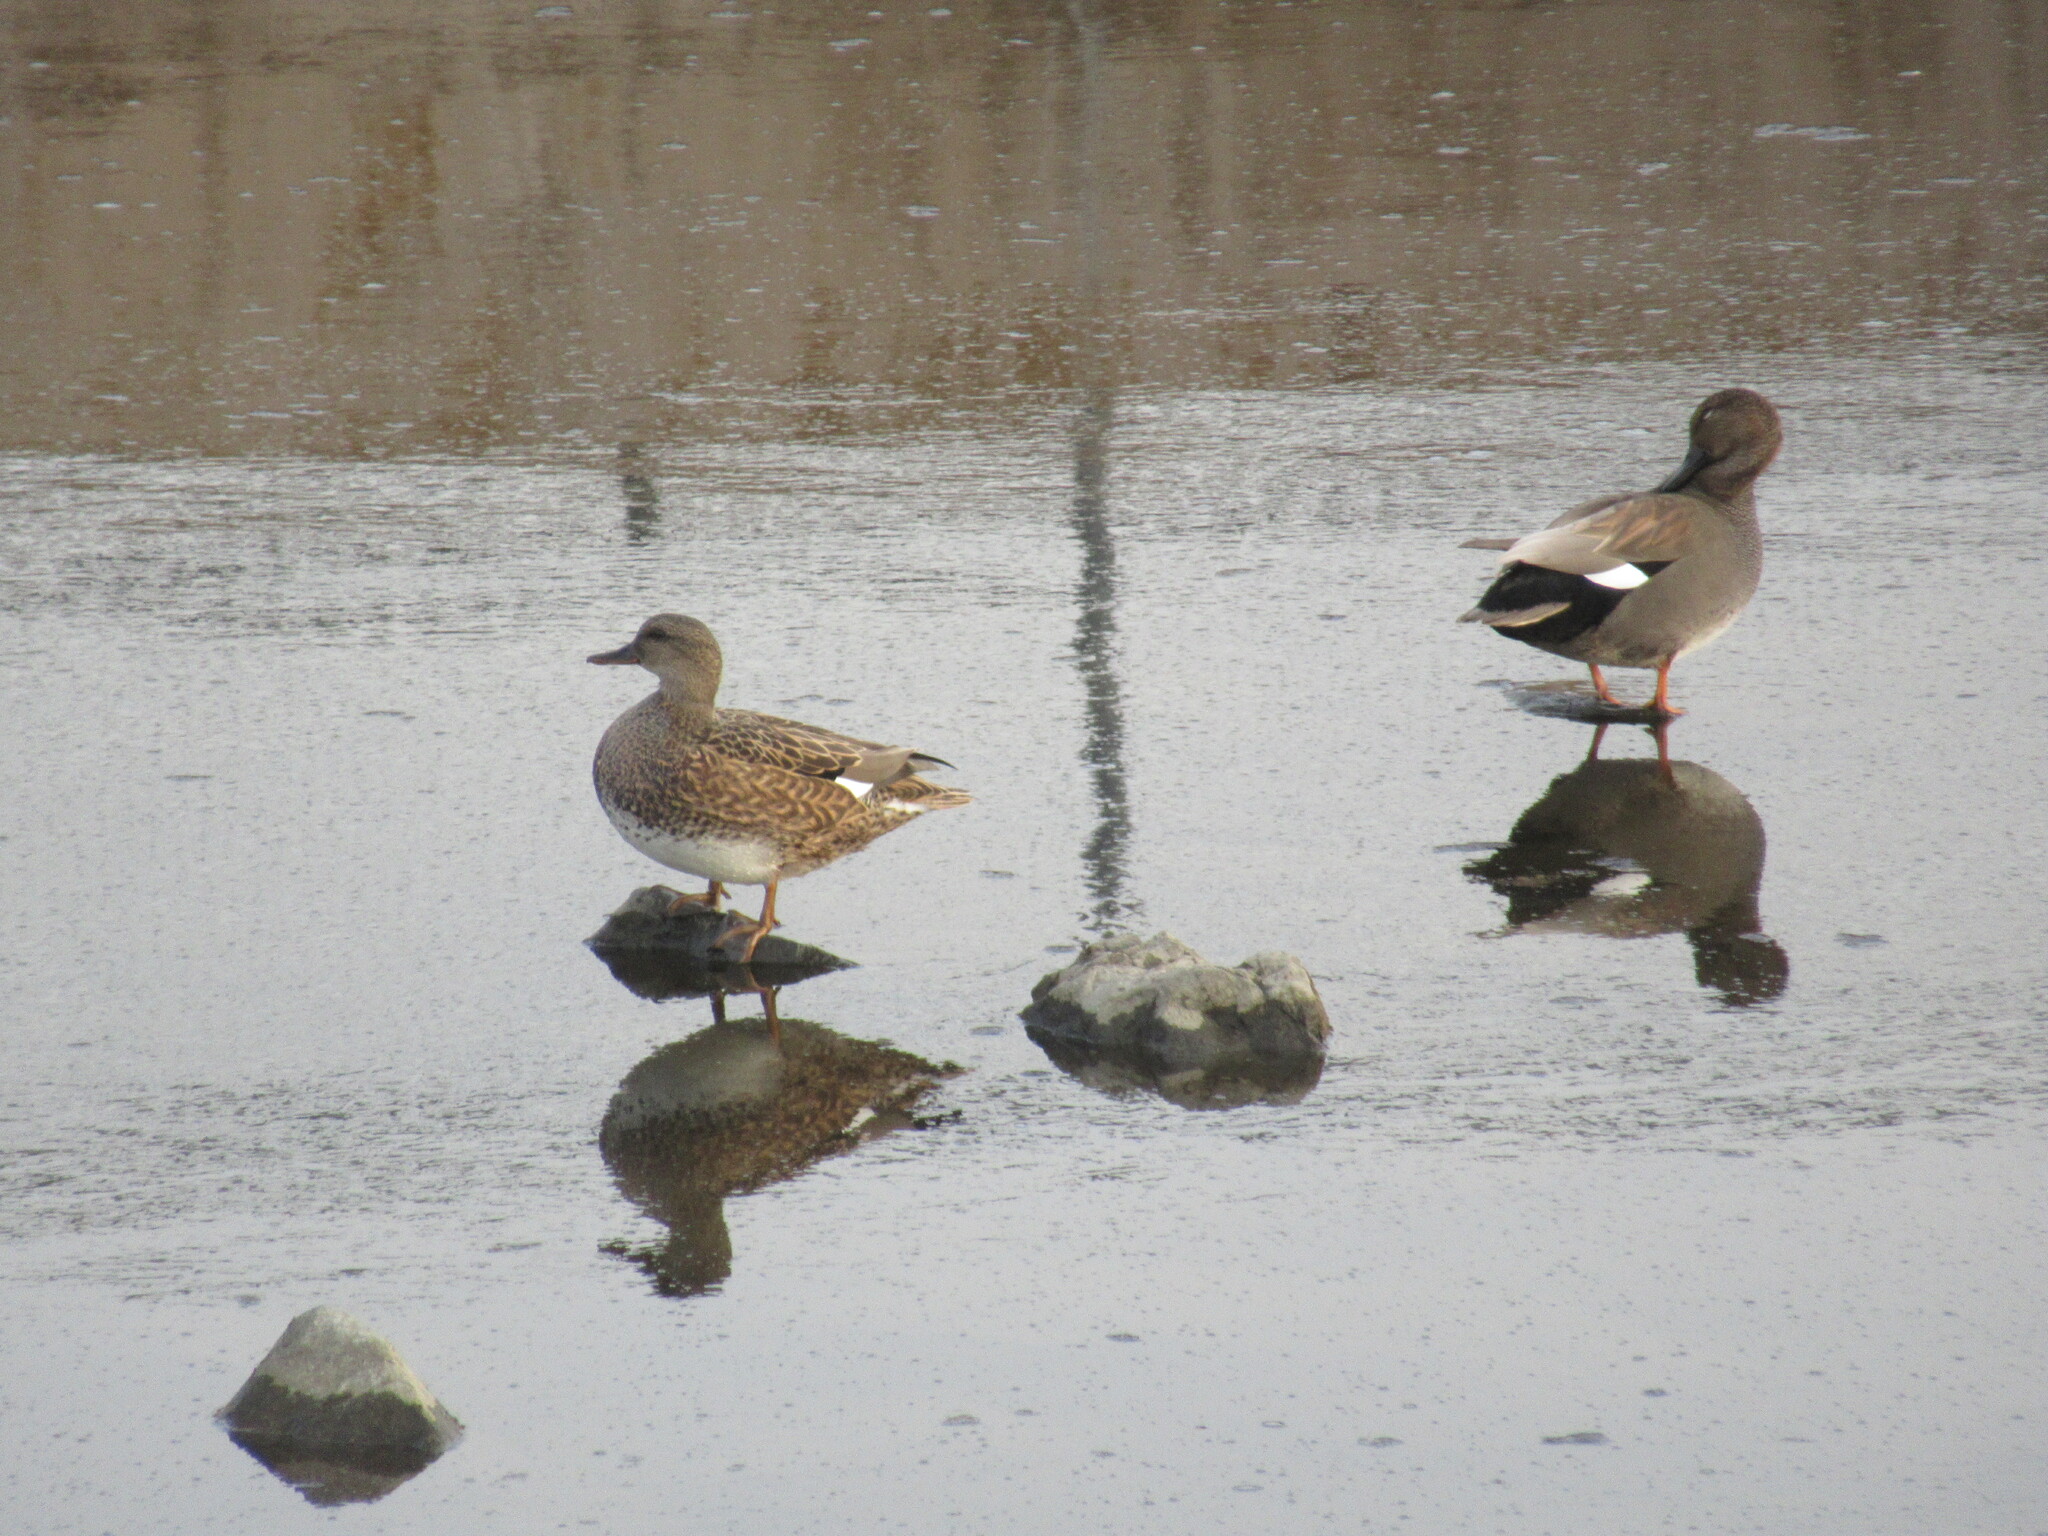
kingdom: Animalia
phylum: Chordata
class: Aves
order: Anseriformes
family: Anatidae
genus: Mareca
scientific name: Mareca strepera
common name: Gadwall
